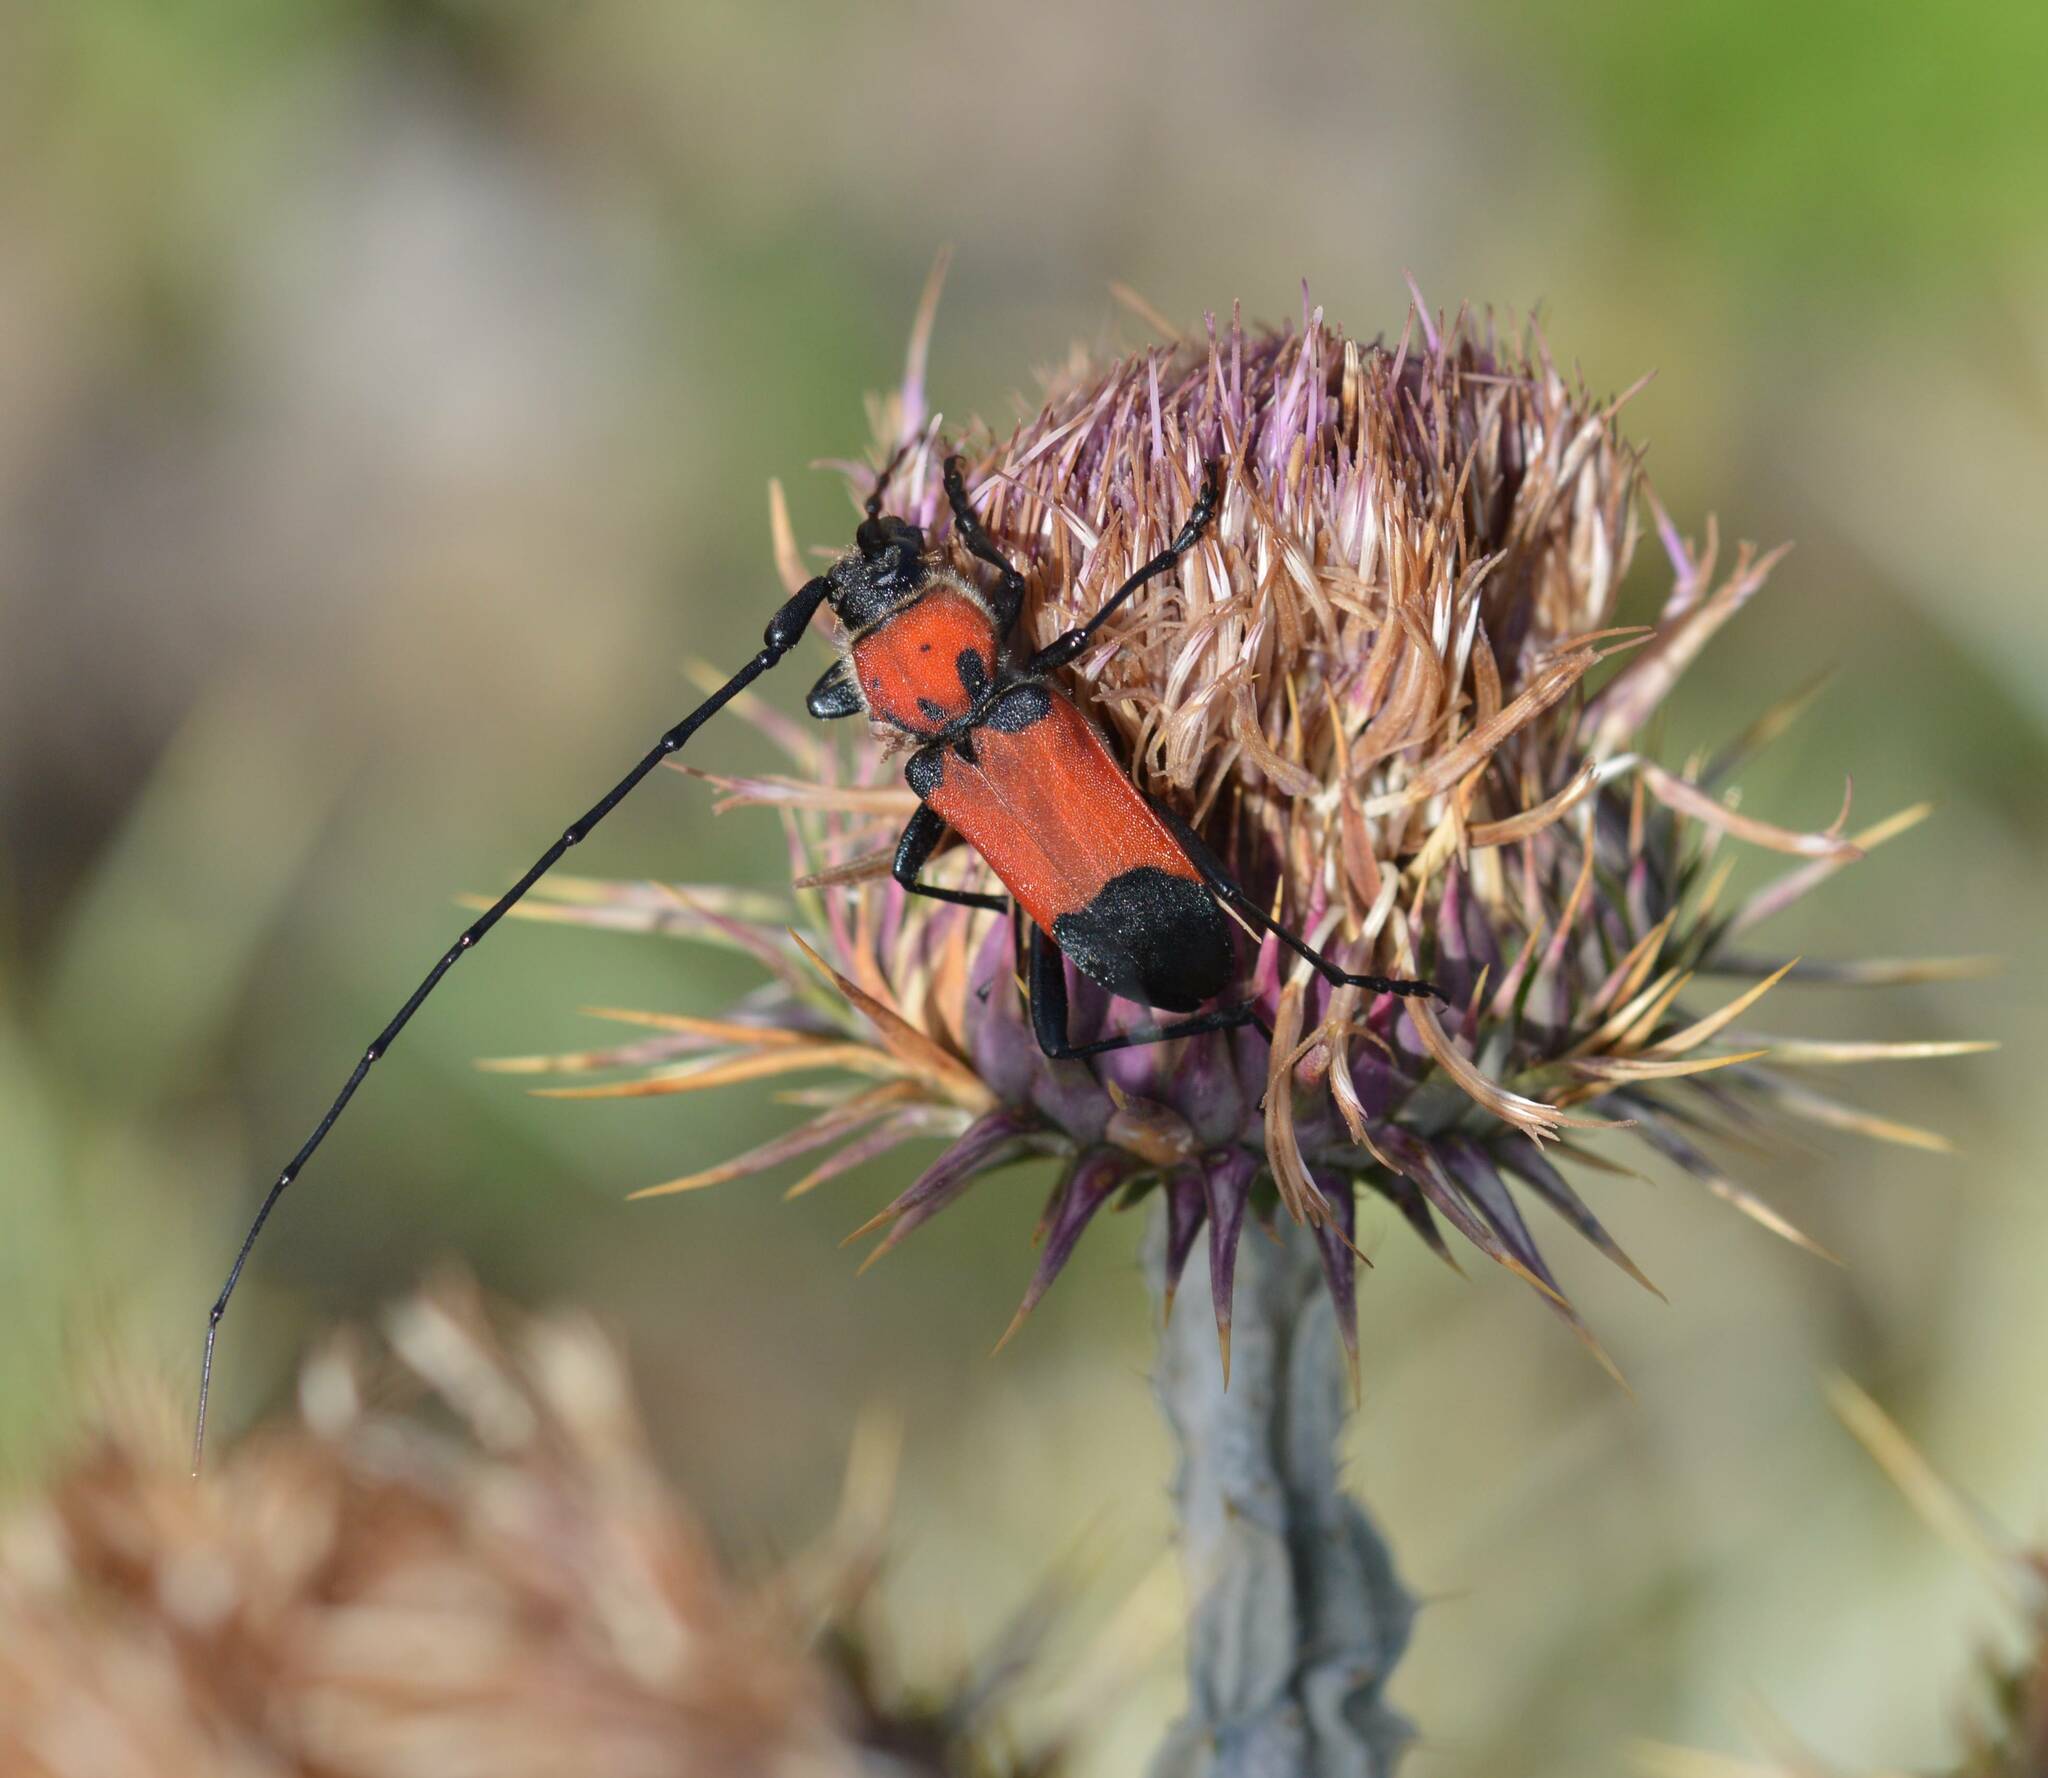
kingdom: Animalia
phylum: Arthropoda
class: Insecta
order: Coleoptera
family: Cerambycidae
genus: Purpuricenus
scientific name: Purpuricenus desfontainii
